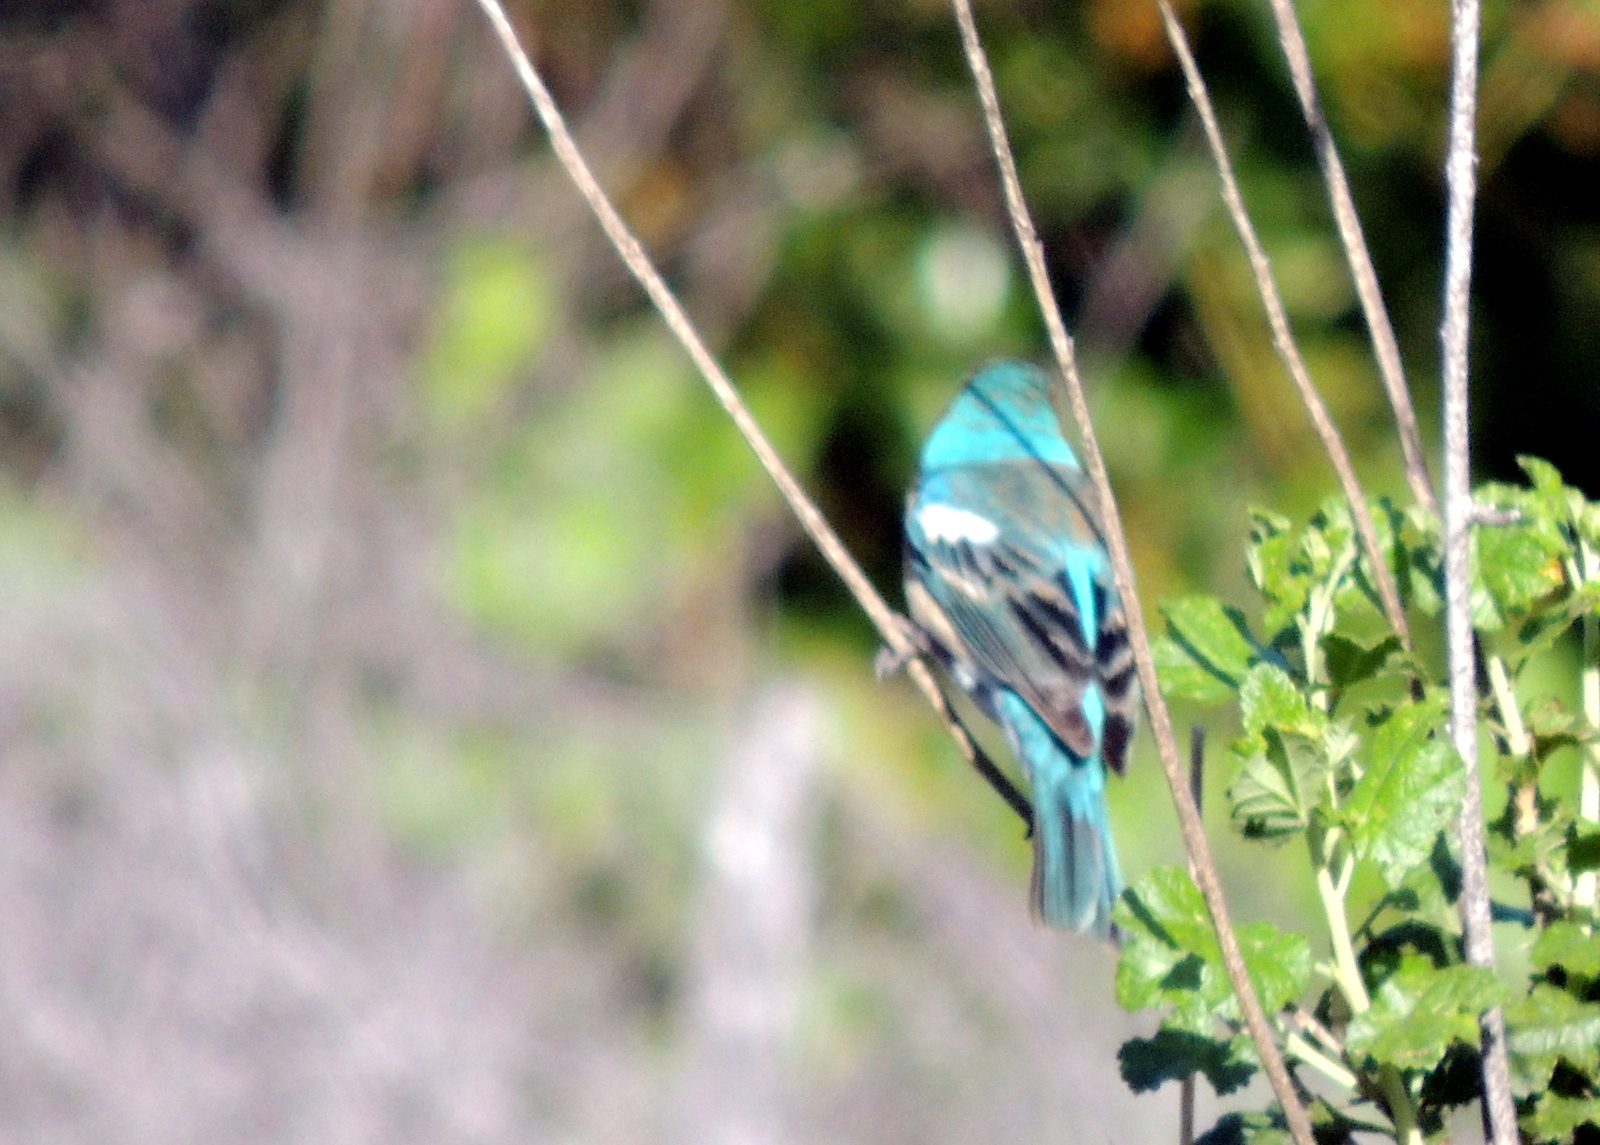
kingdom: Animalia
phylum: Chordata
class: Aves
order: Passeriformes
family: Cardinalidae
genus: Passerina
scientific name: Passerina amoena
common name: Lazuli bunting
